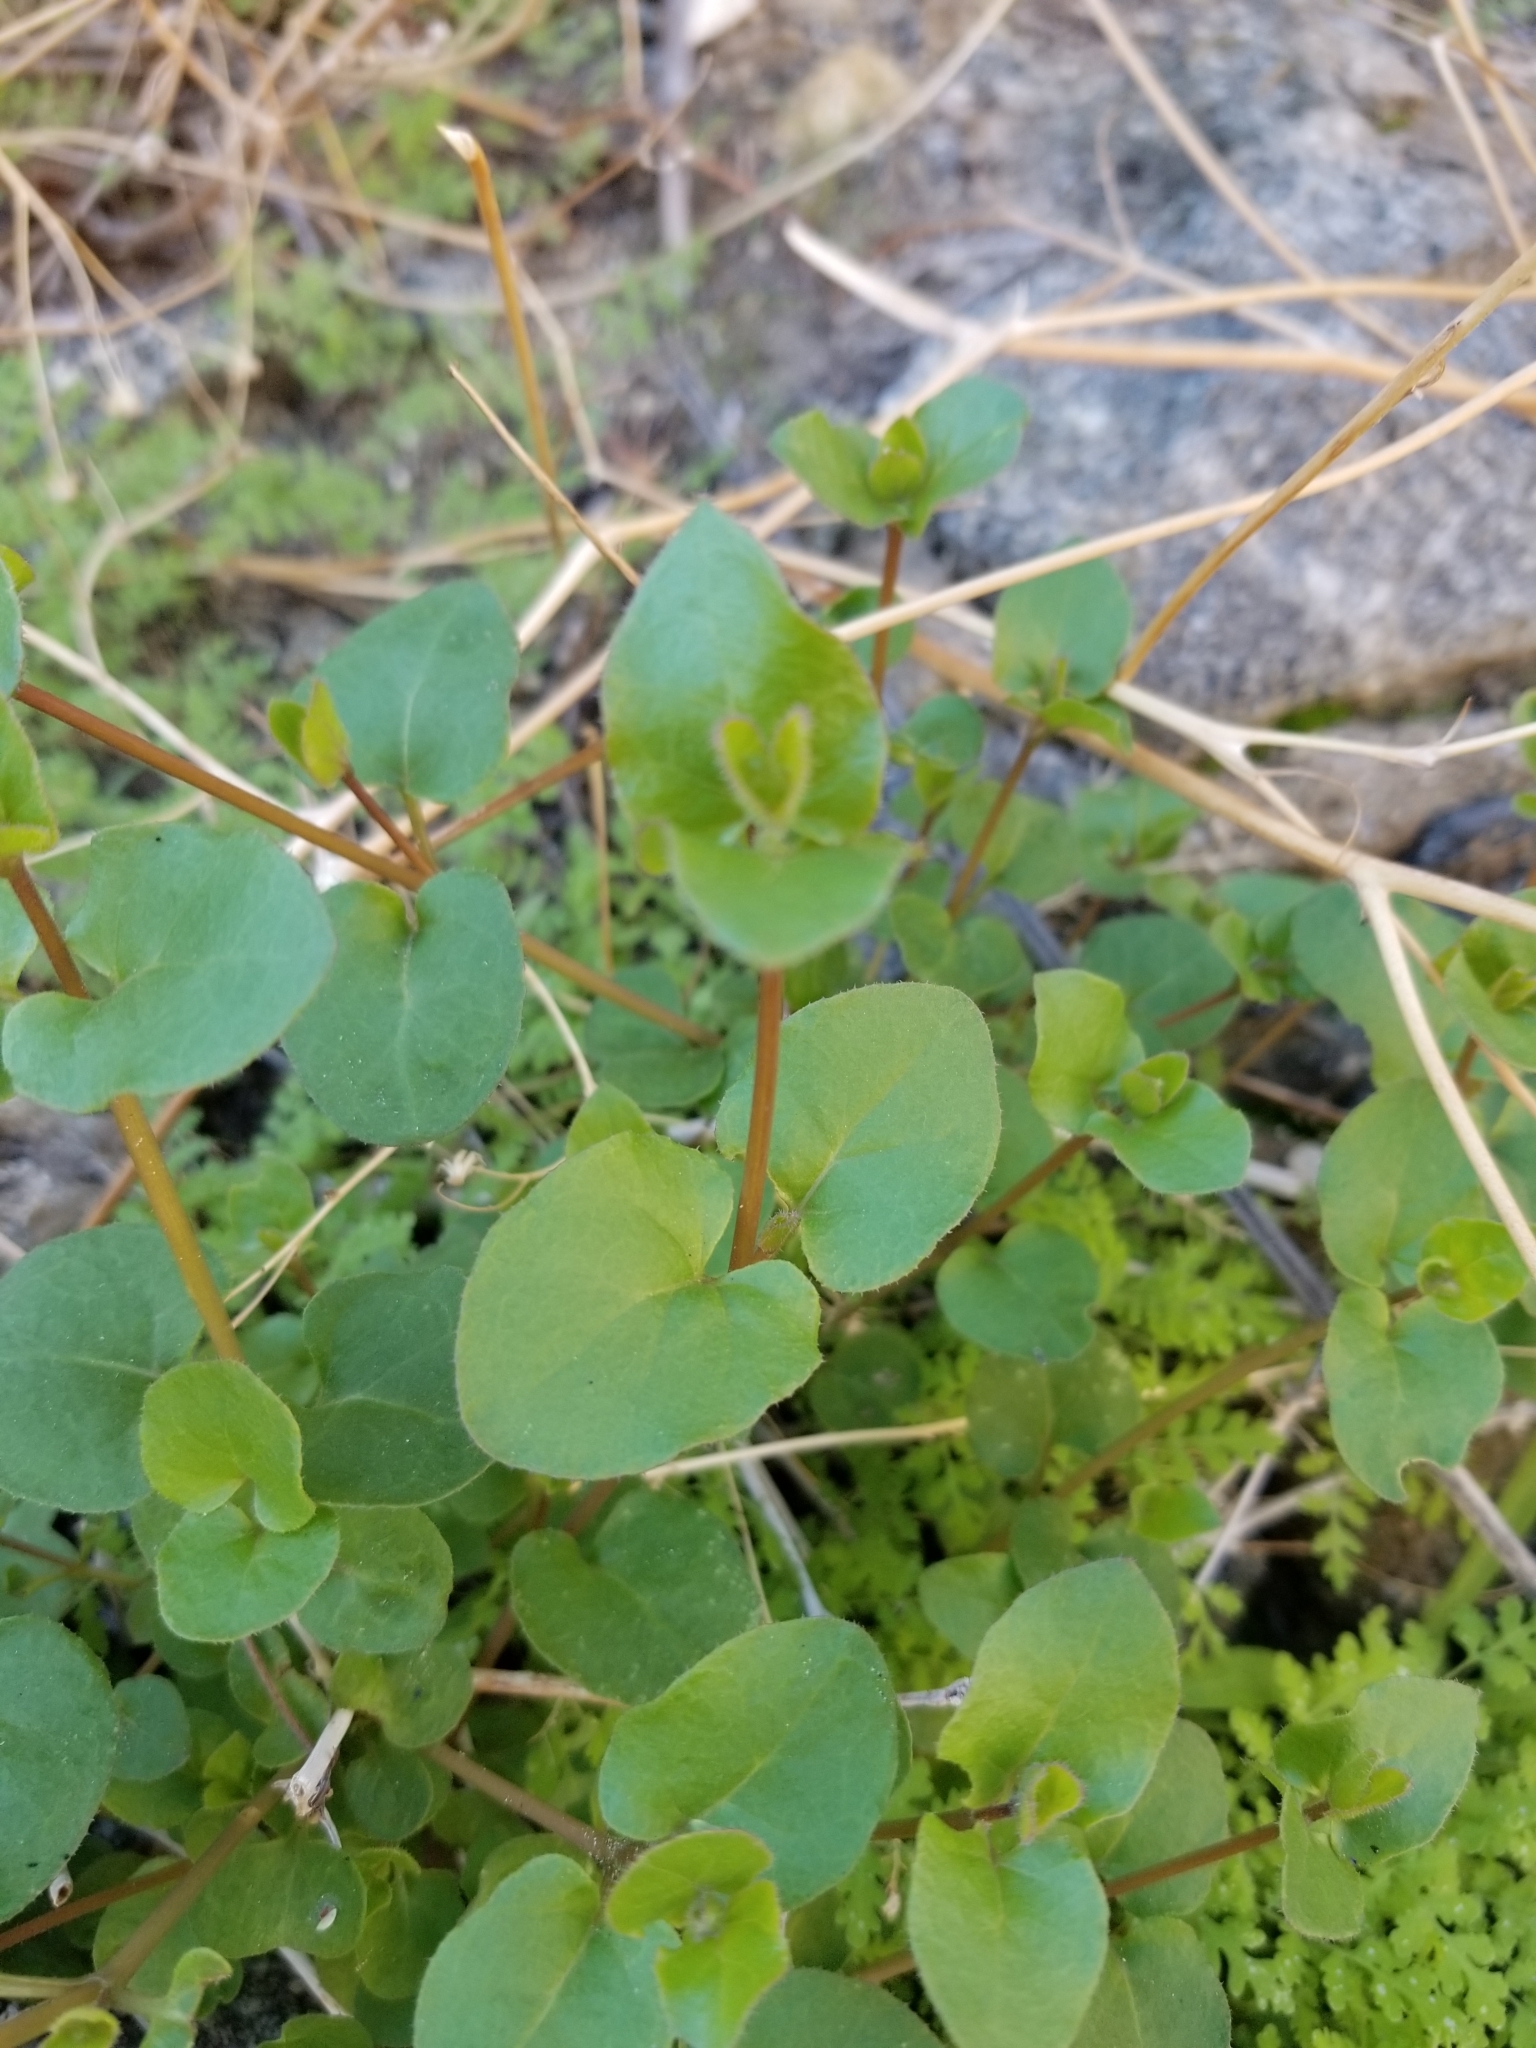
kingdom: Plantae
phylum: Tracheophyta
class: Magnoliopsida
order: Caryophyllales
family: Nyctaginaceae
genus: Mirabilis
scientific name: Mirabilis laevis
